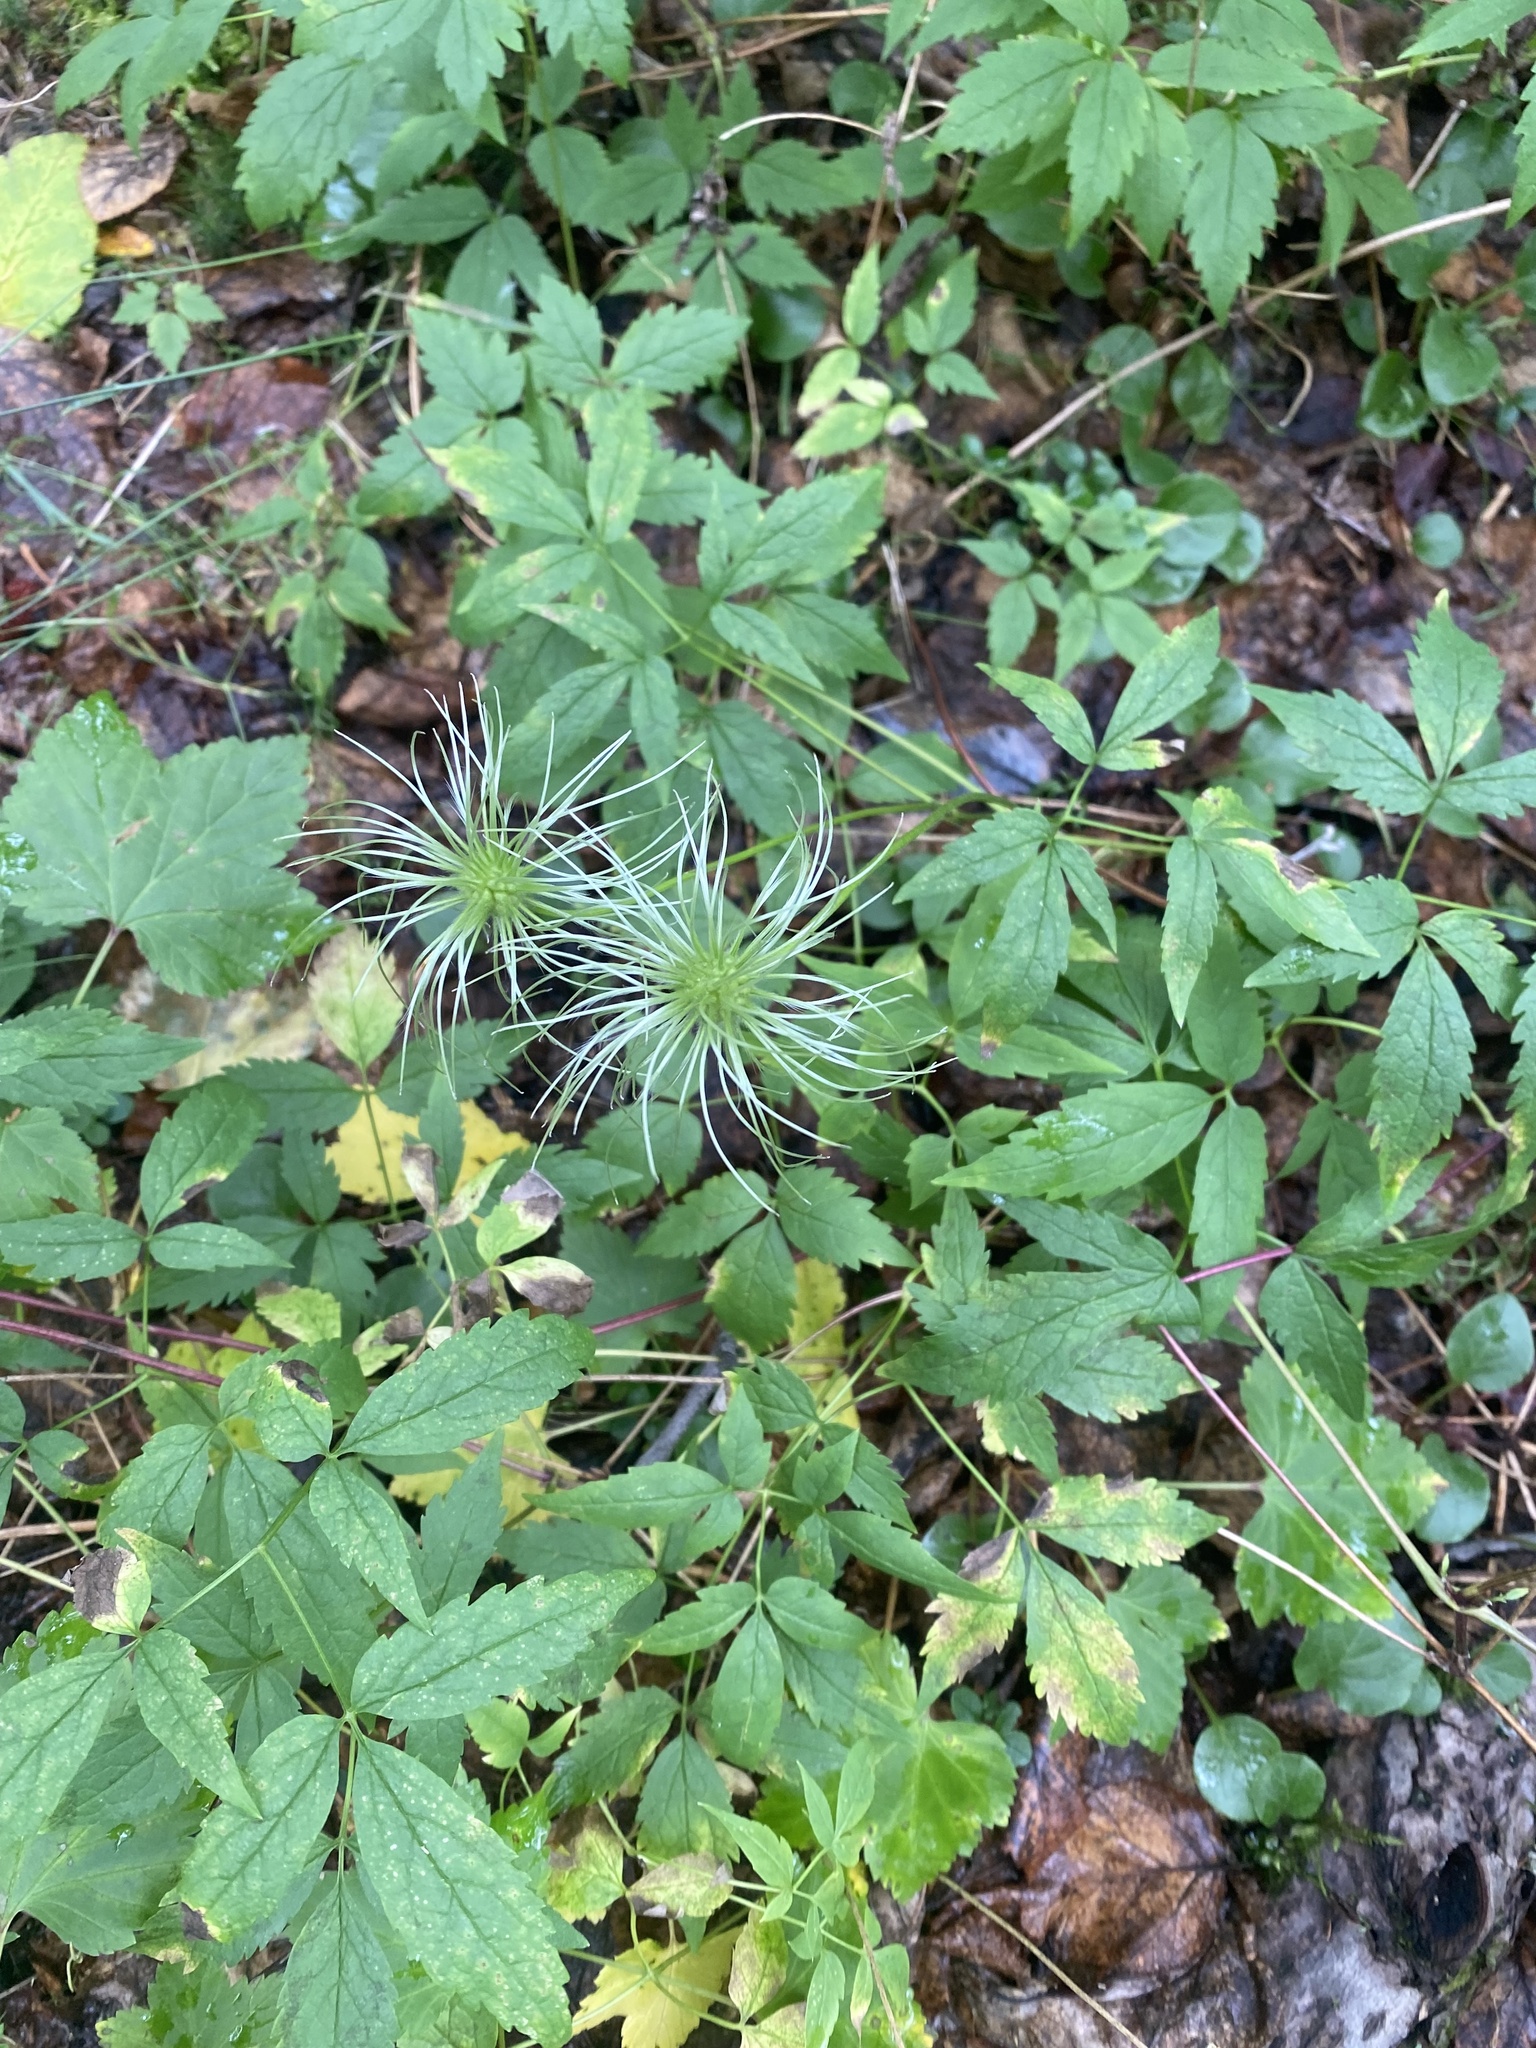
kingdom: Plantae
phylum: Tracheophyta
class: Magnoliopsida
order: Ranunculales
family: Ranunculaceae
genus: Clematis
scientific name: Clematis sibirica
